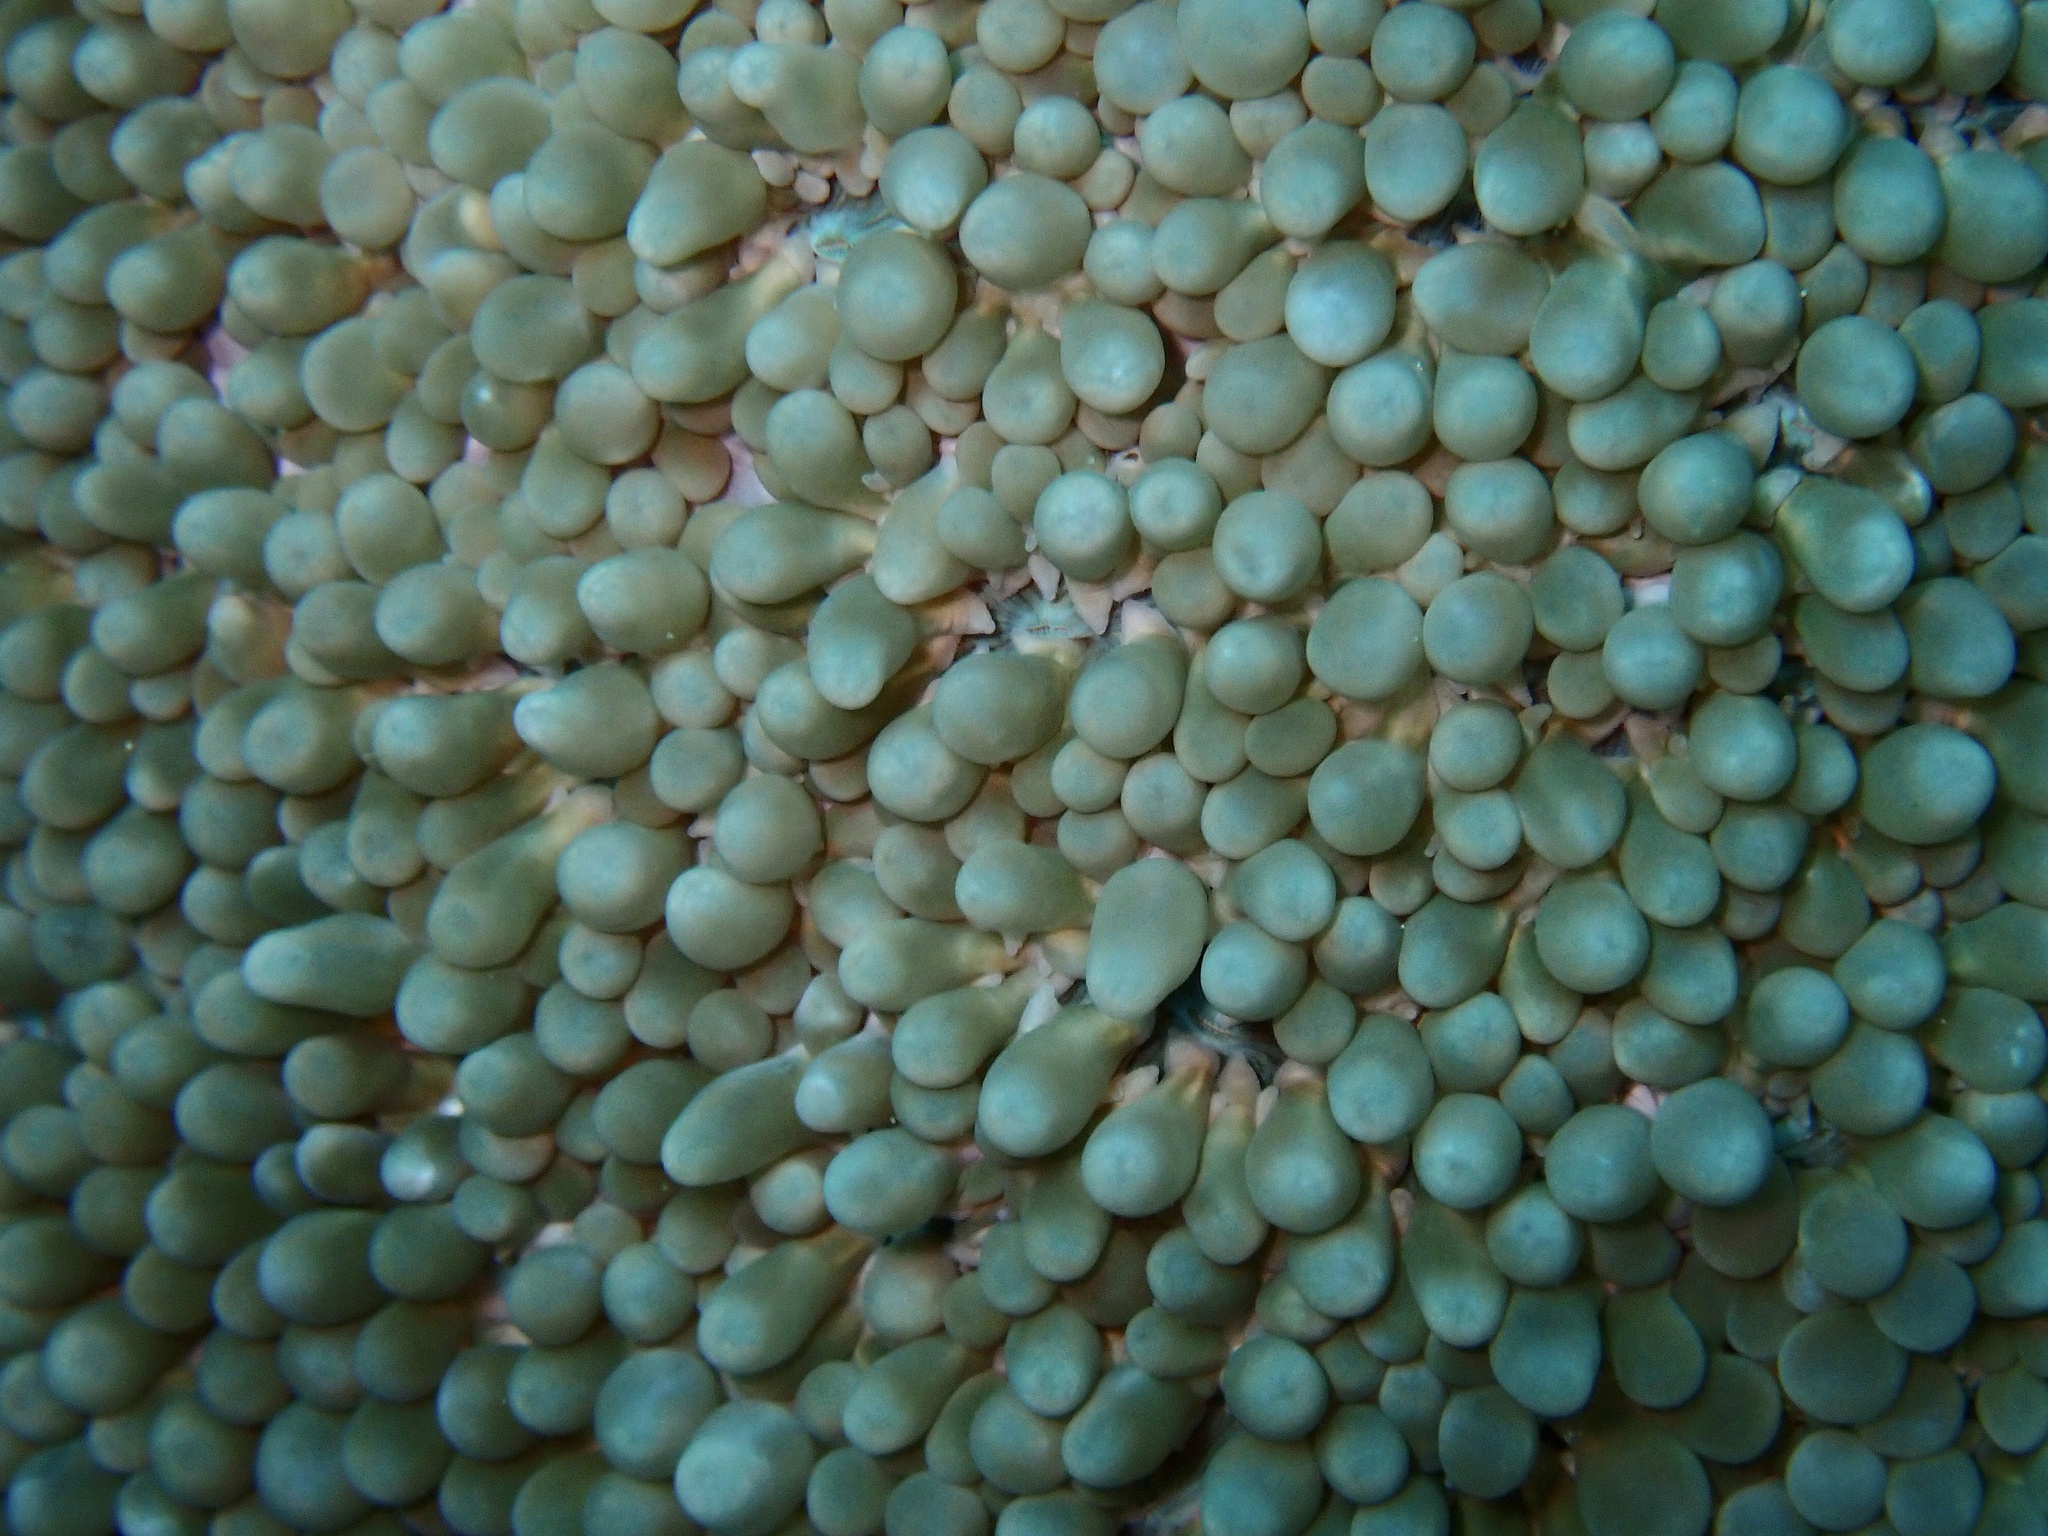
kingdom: Animalia
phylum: Cnidaria
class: Anthozoa
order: Scleractinia
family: Plerogyridae
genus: Physogyra
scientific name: Physogyra lichtensteini
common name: Tipped bubblegum coral
